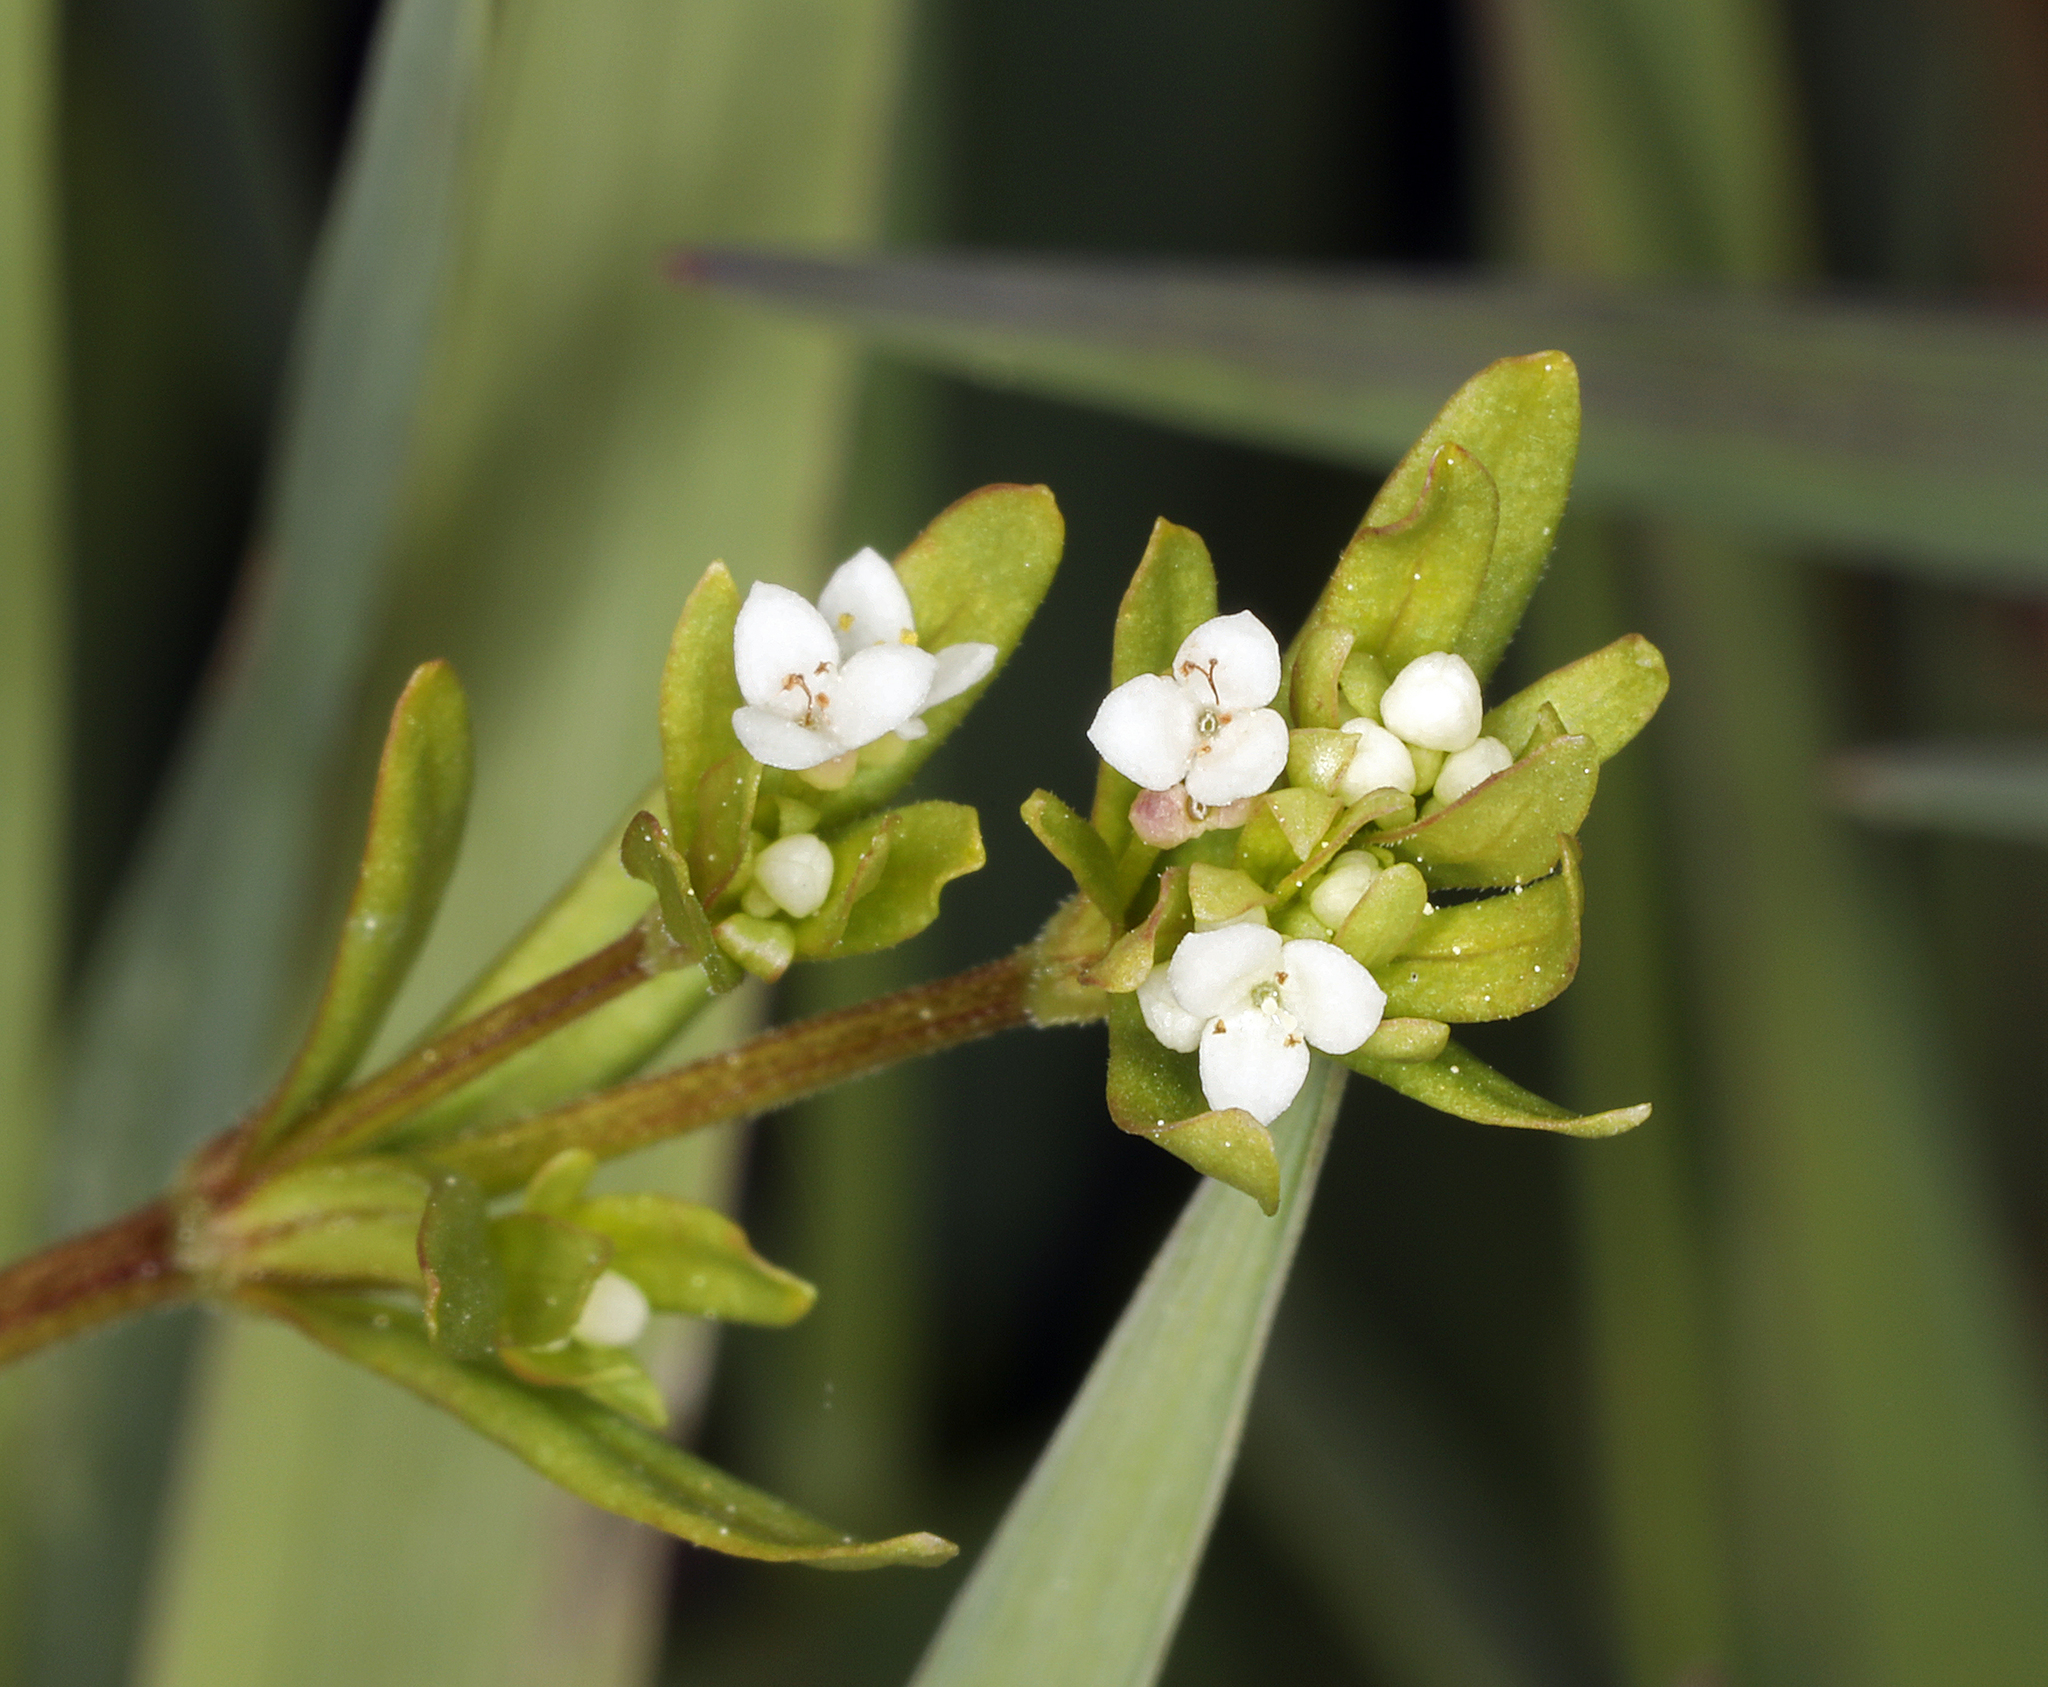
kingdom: Plantae
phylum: Tracheophyta
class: Magnoliopsida
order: Gentianales
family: Rubiaceae
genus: Galium
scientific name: Galium trifidum
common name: Small bedstraw
